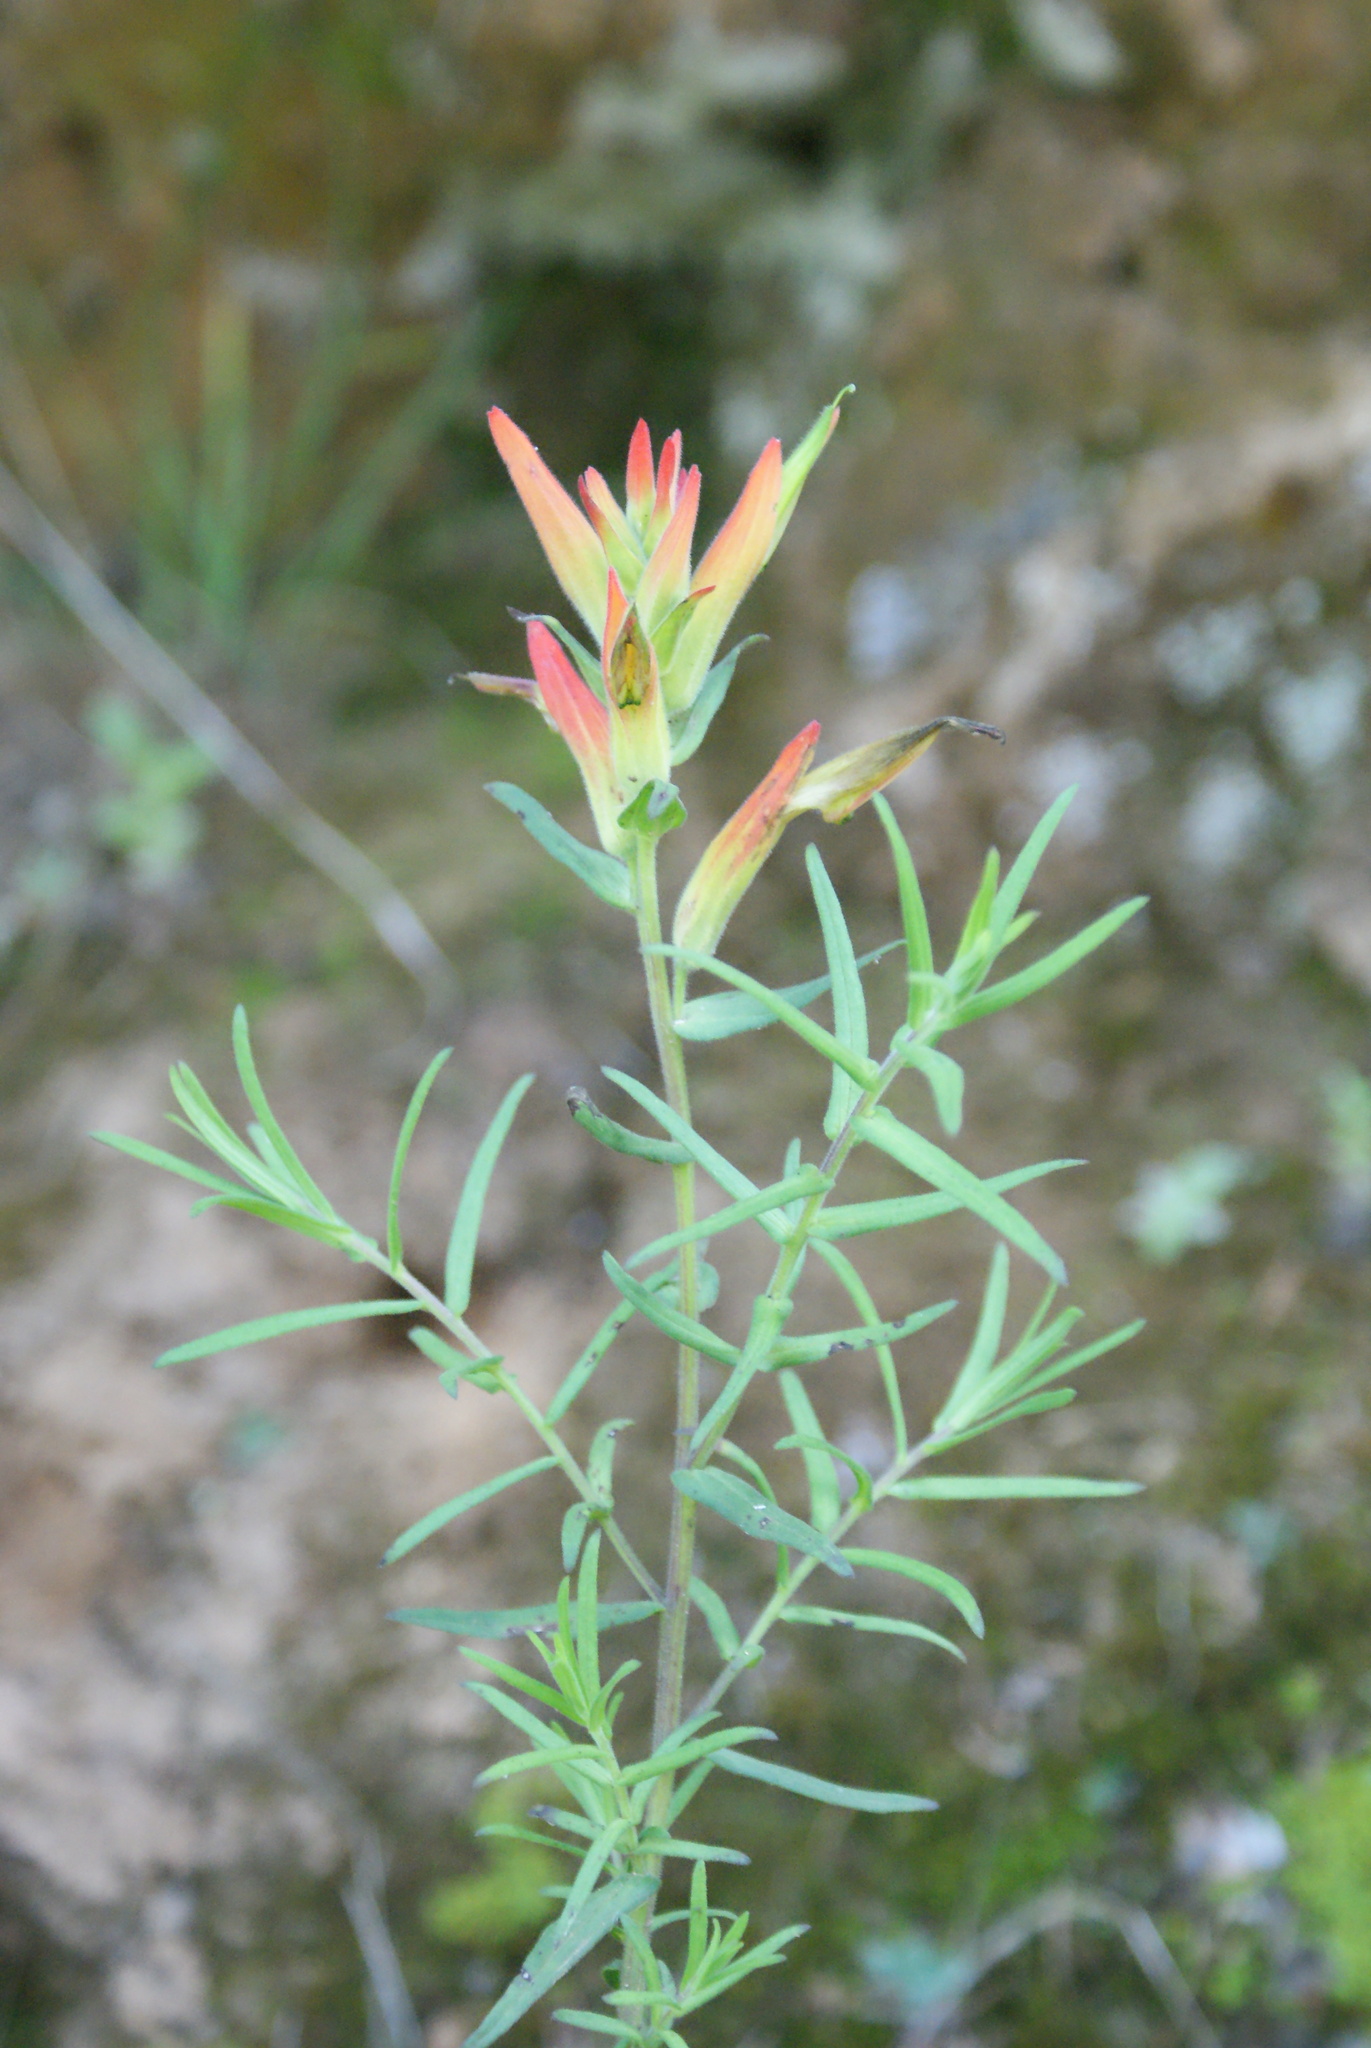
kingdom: Plantae
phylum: Tracheophyta
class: Magnoliopsida
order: Lamiales
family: Orobanchaceae
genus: Castilleja
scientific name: Castilleja integrifolia
